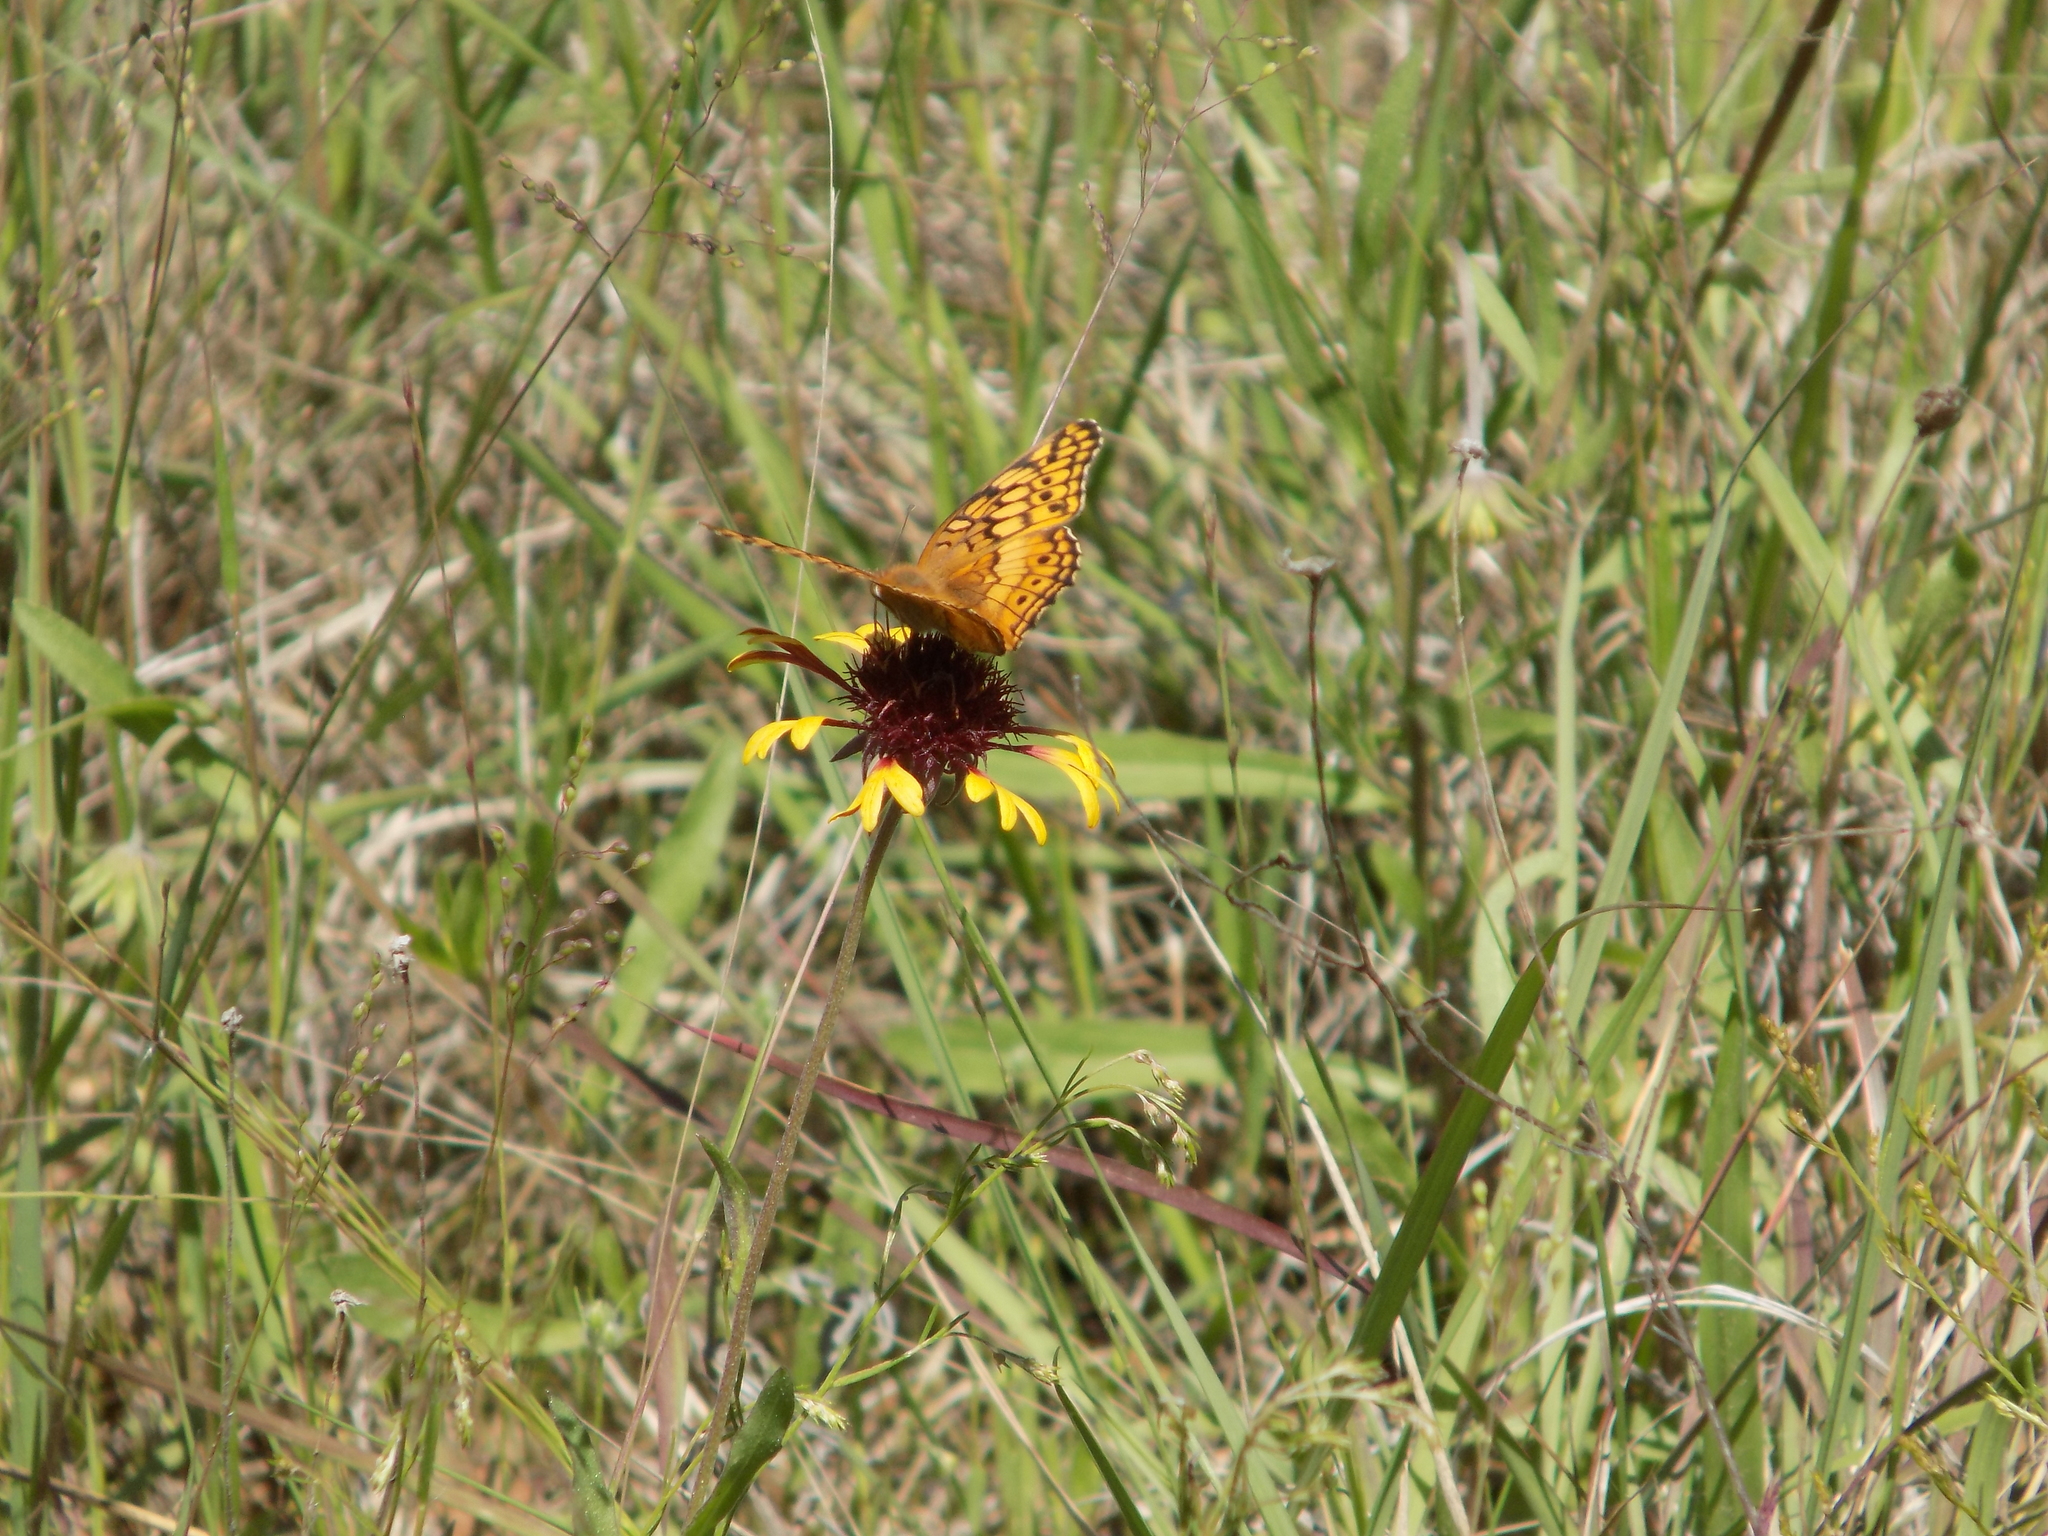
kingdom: Animalia
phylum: Arthropoda
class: Insecta
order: Lepidoptera
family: Nymphalidae
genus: Euptoieta
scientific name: Euptoieta claudia
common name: Variegated fritillary
